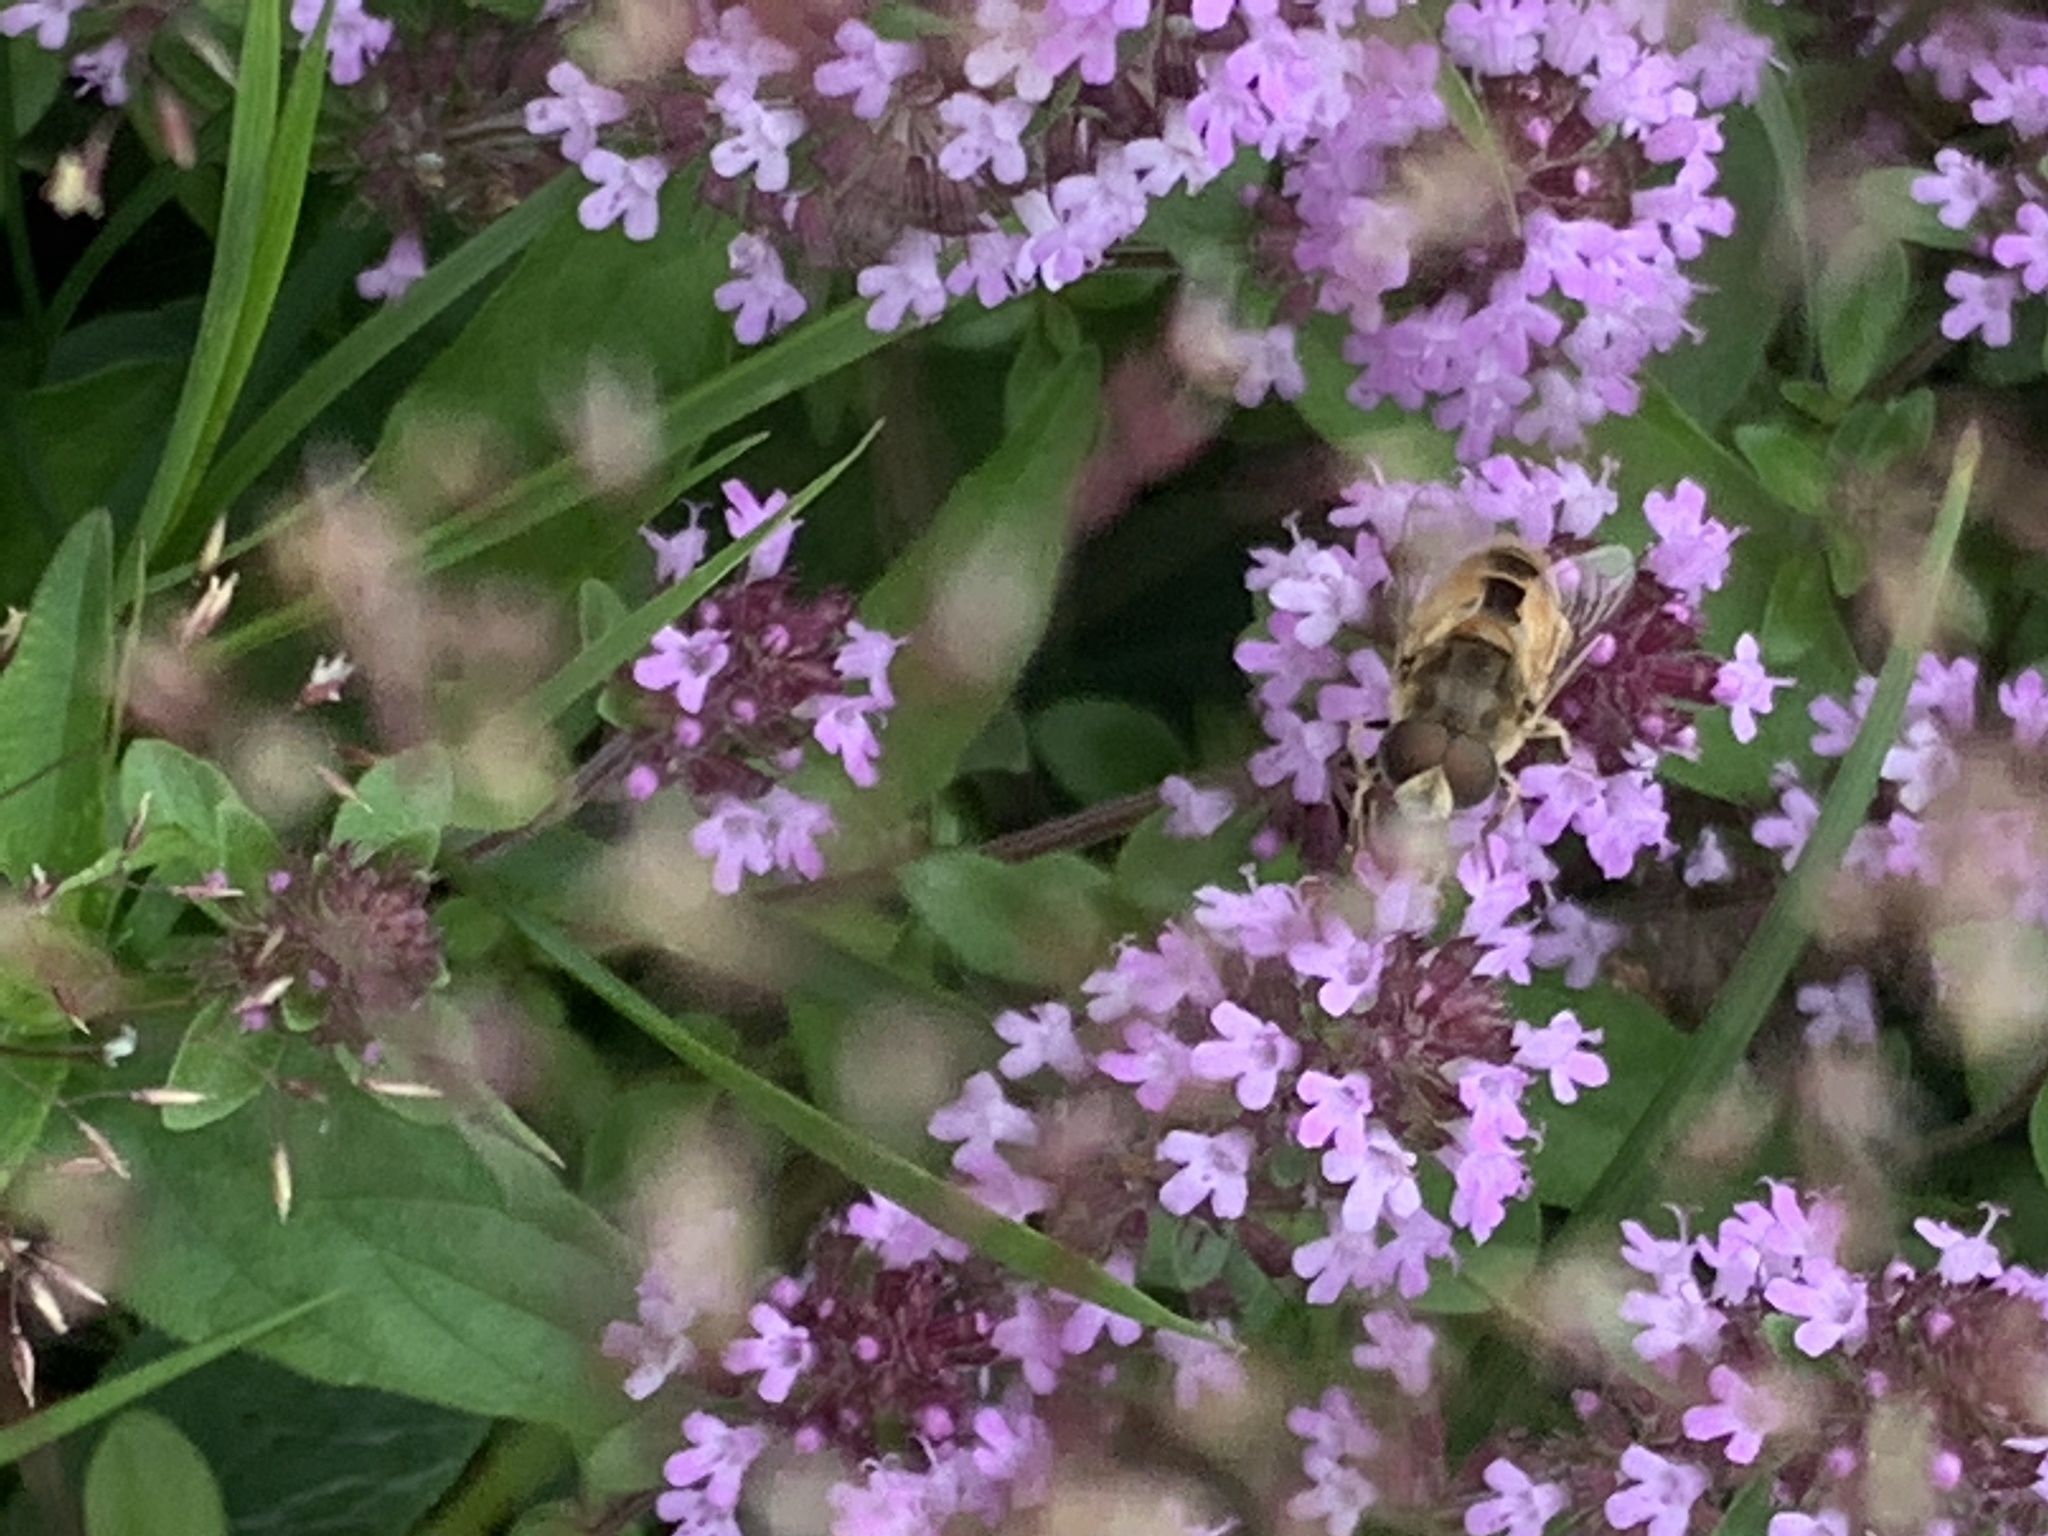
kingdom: Animalia
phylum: Arthropoda
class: Insecta
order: Diptera
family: Syrphidae
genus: Eristalis
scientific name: Eristalis arbustorum
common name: Hover fly
